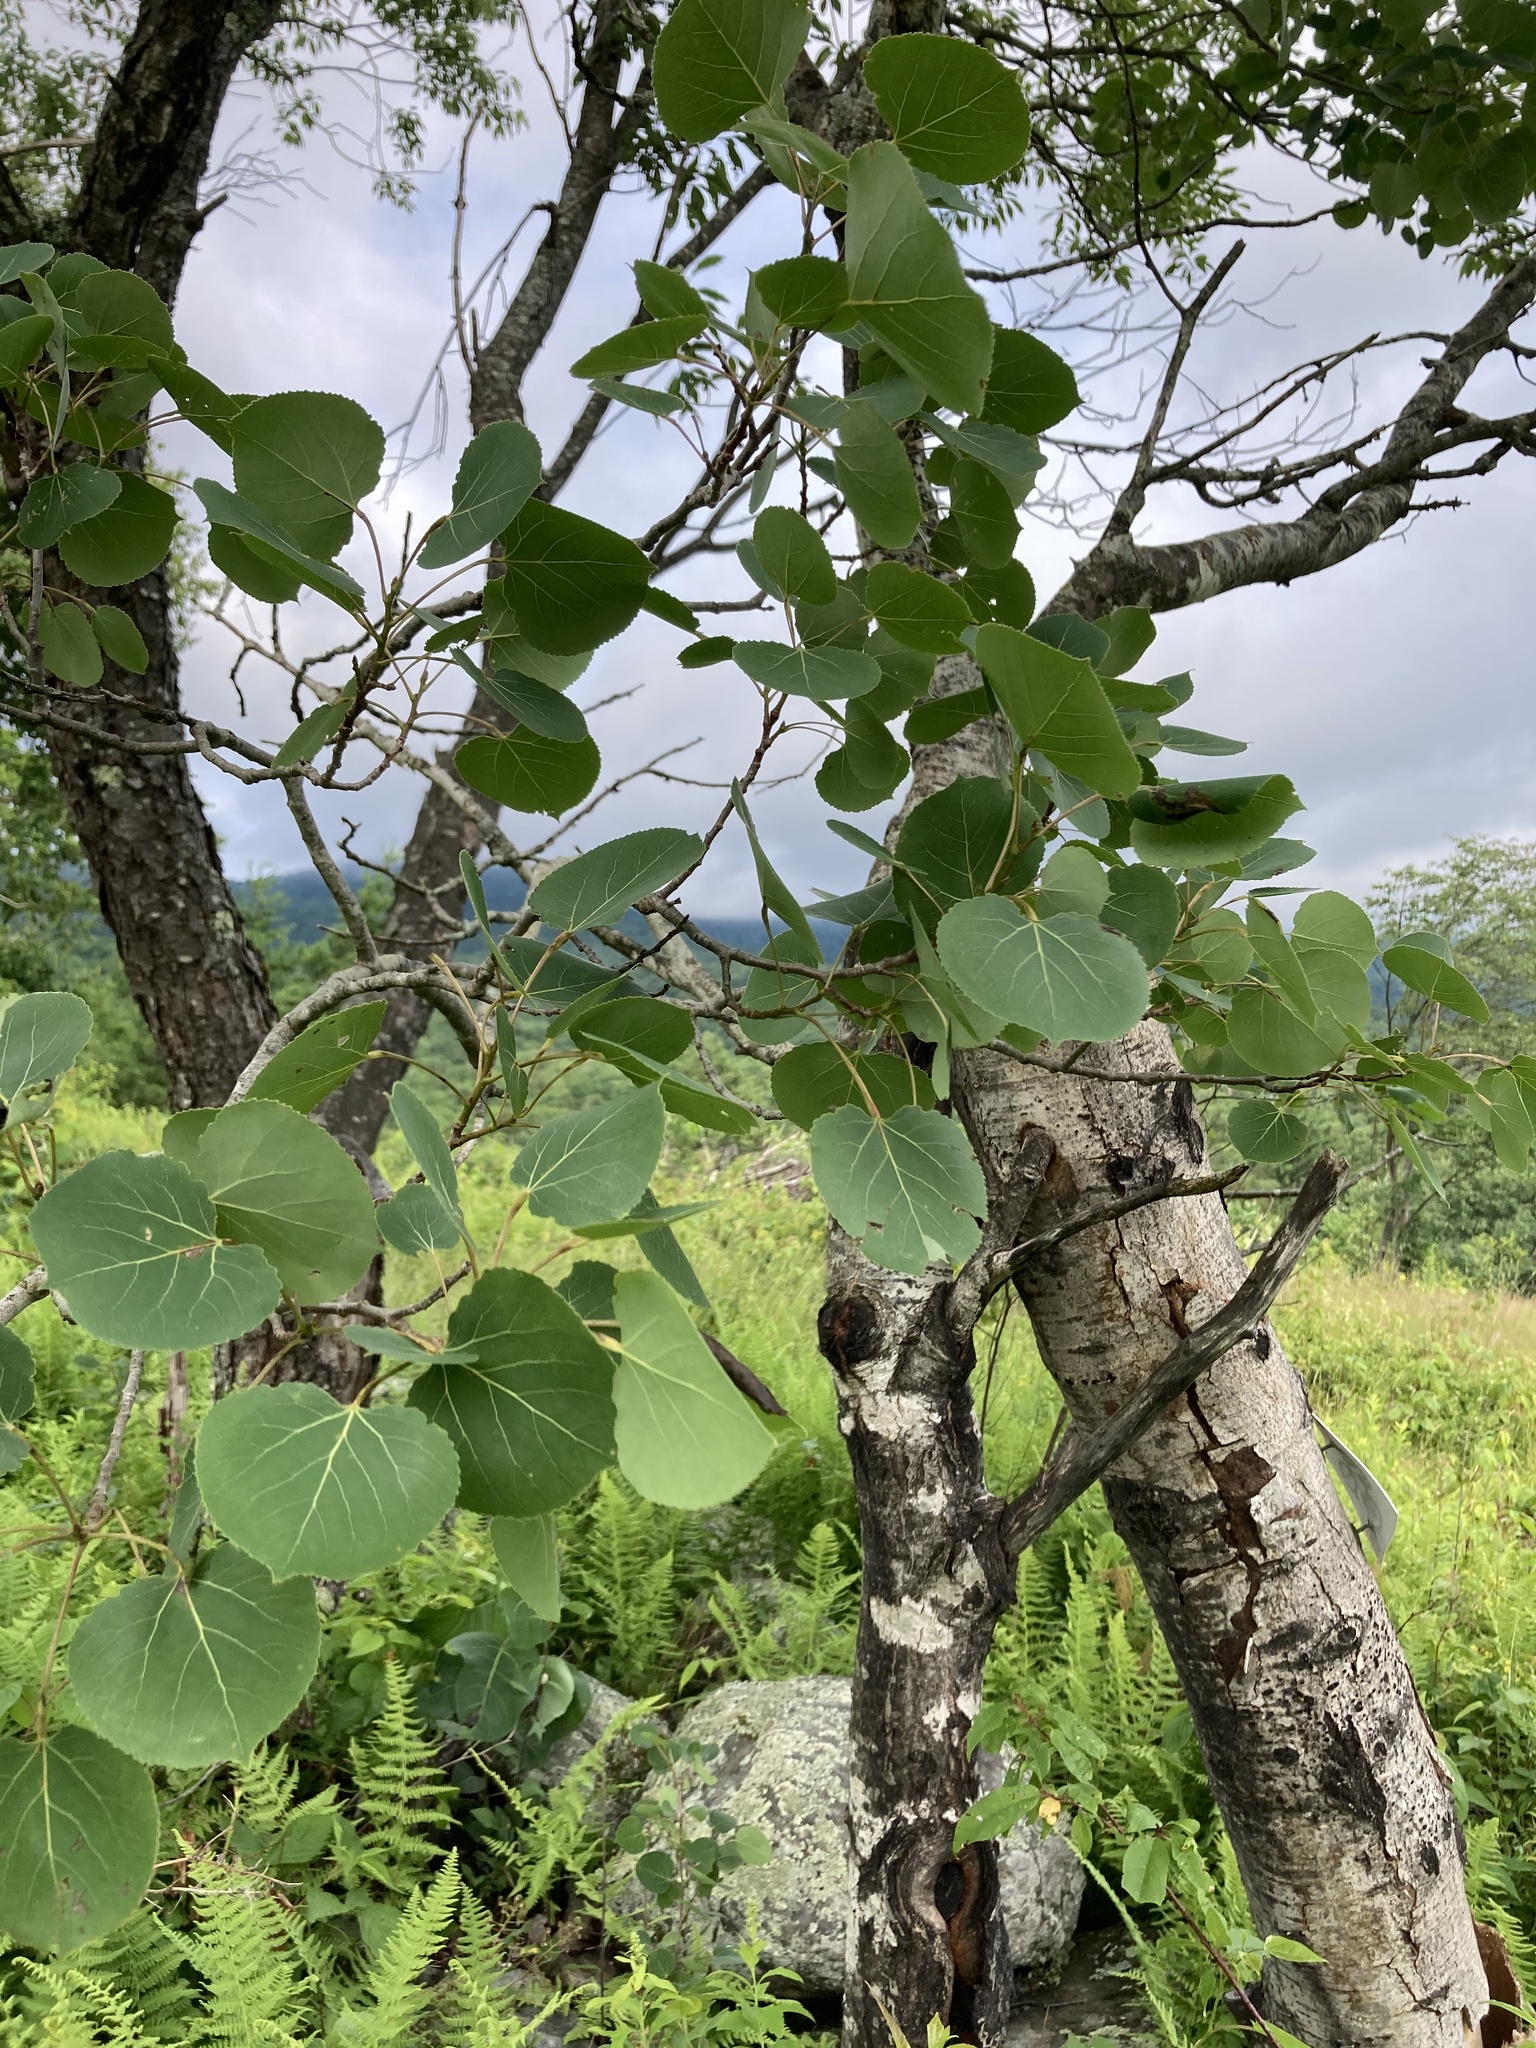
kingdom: Plantae
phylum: Tracheophyta
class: Magnoliopsida
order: Malpighiales
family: Salicaceae
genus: Populus
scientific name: Populus tremuloides
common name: Quaking aspen
